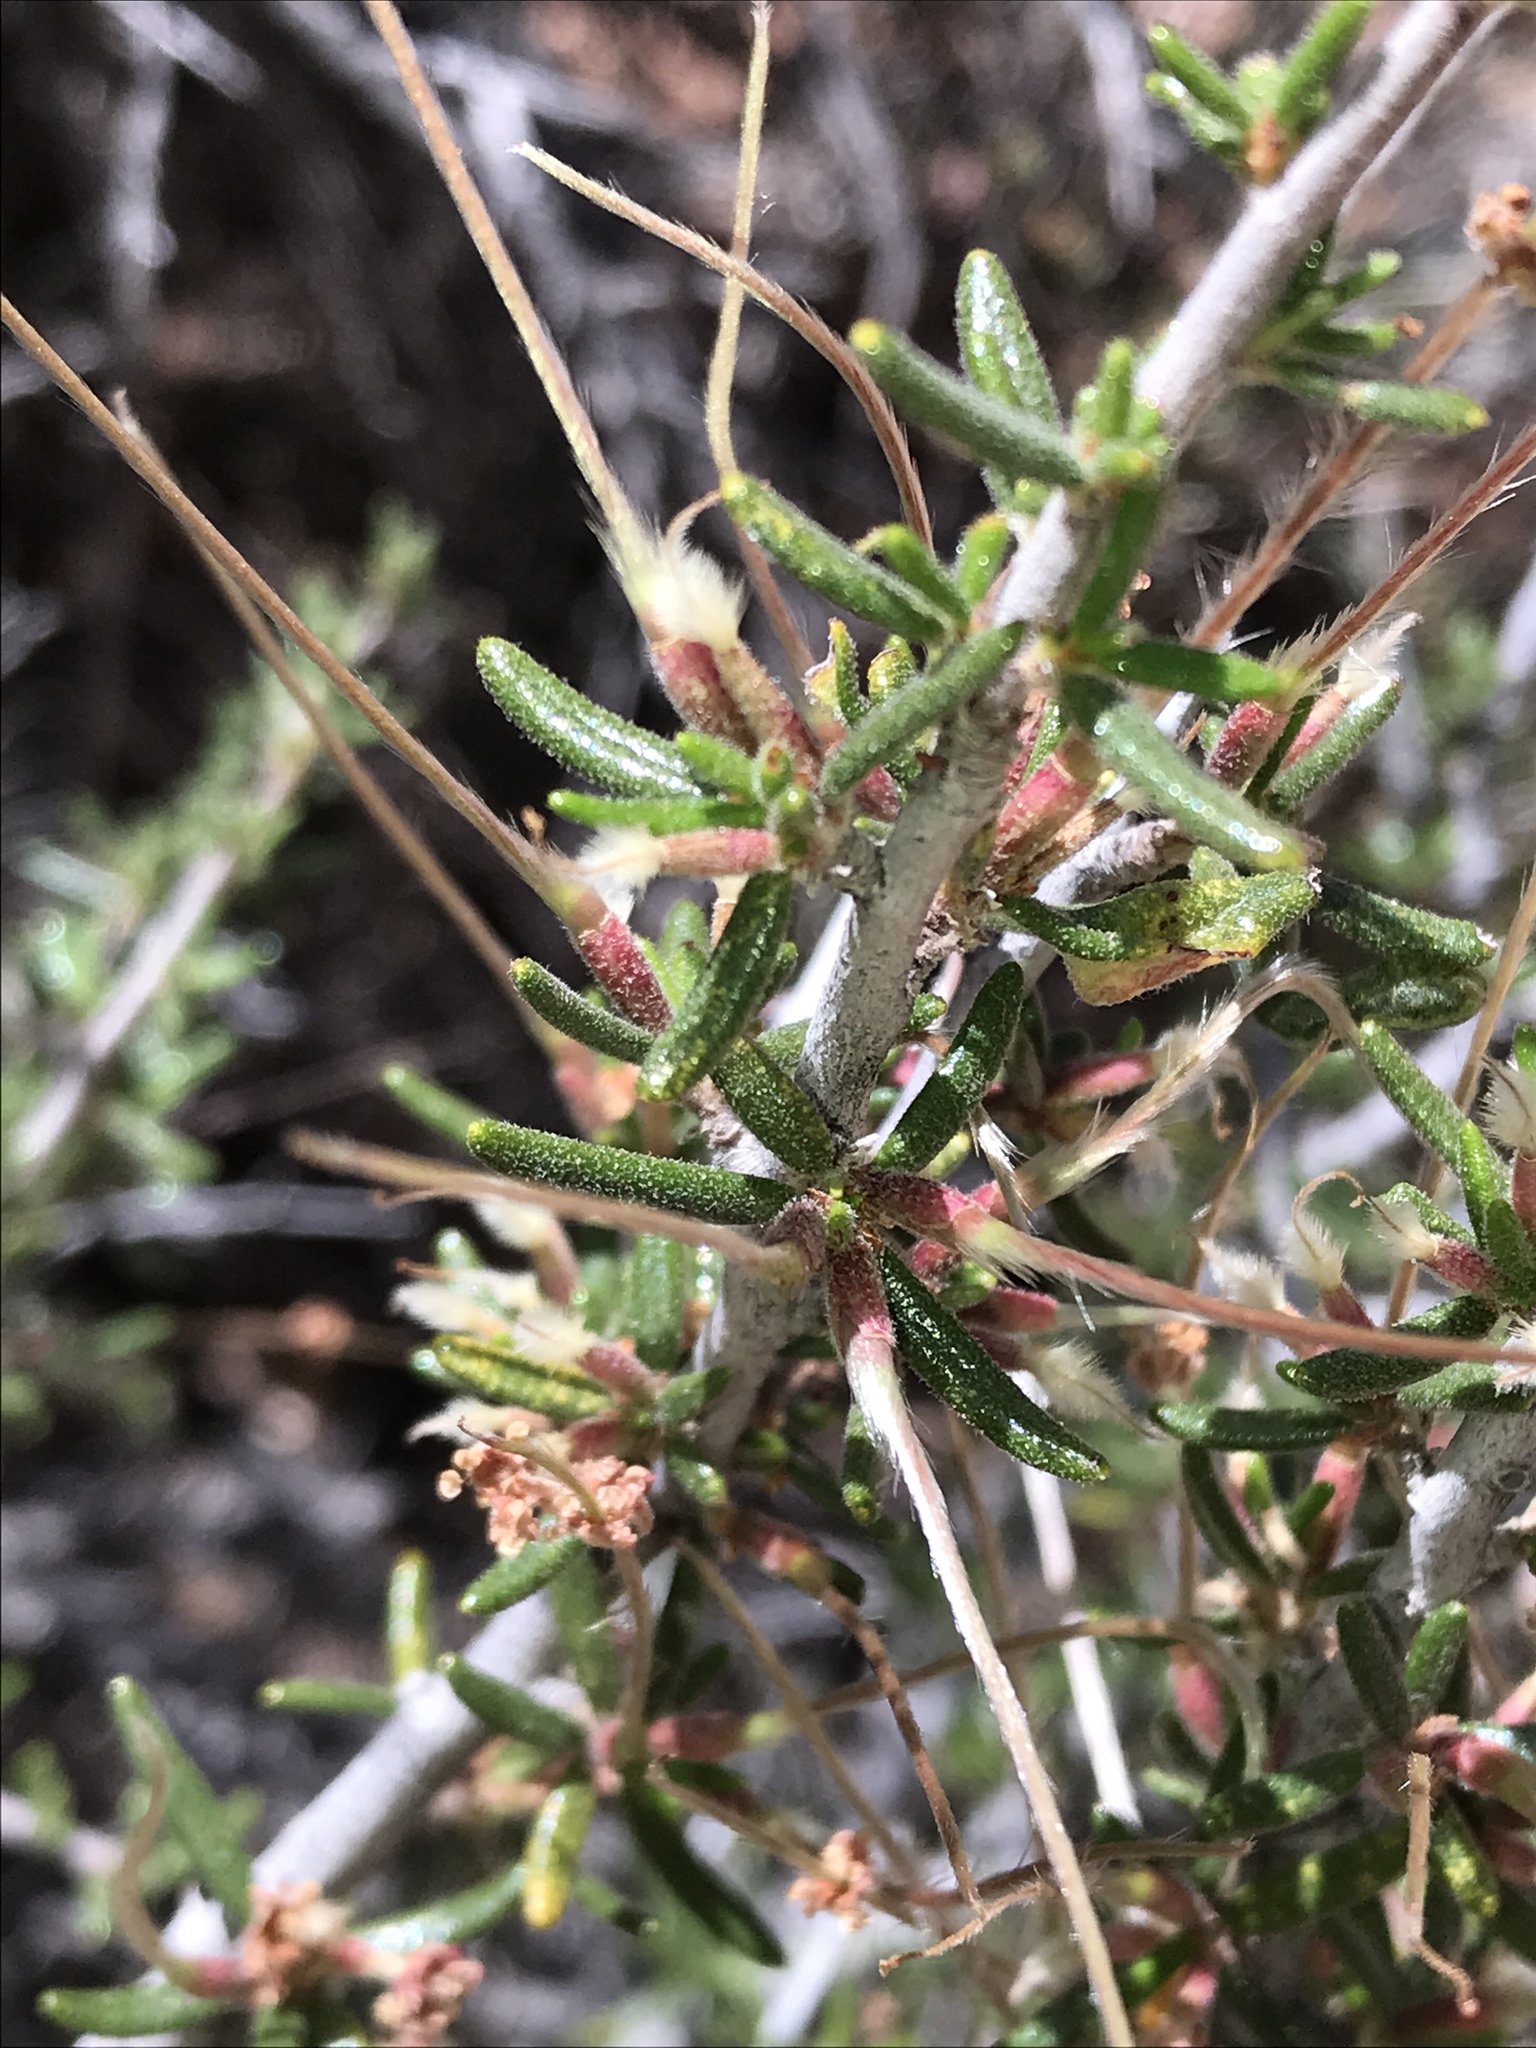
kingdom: Plantae
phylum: Tracheophyta
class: Magnoliopsida
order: Rosales
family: Rosaceae
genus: Cercocarpus
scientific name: Cercocarpus intricatus
